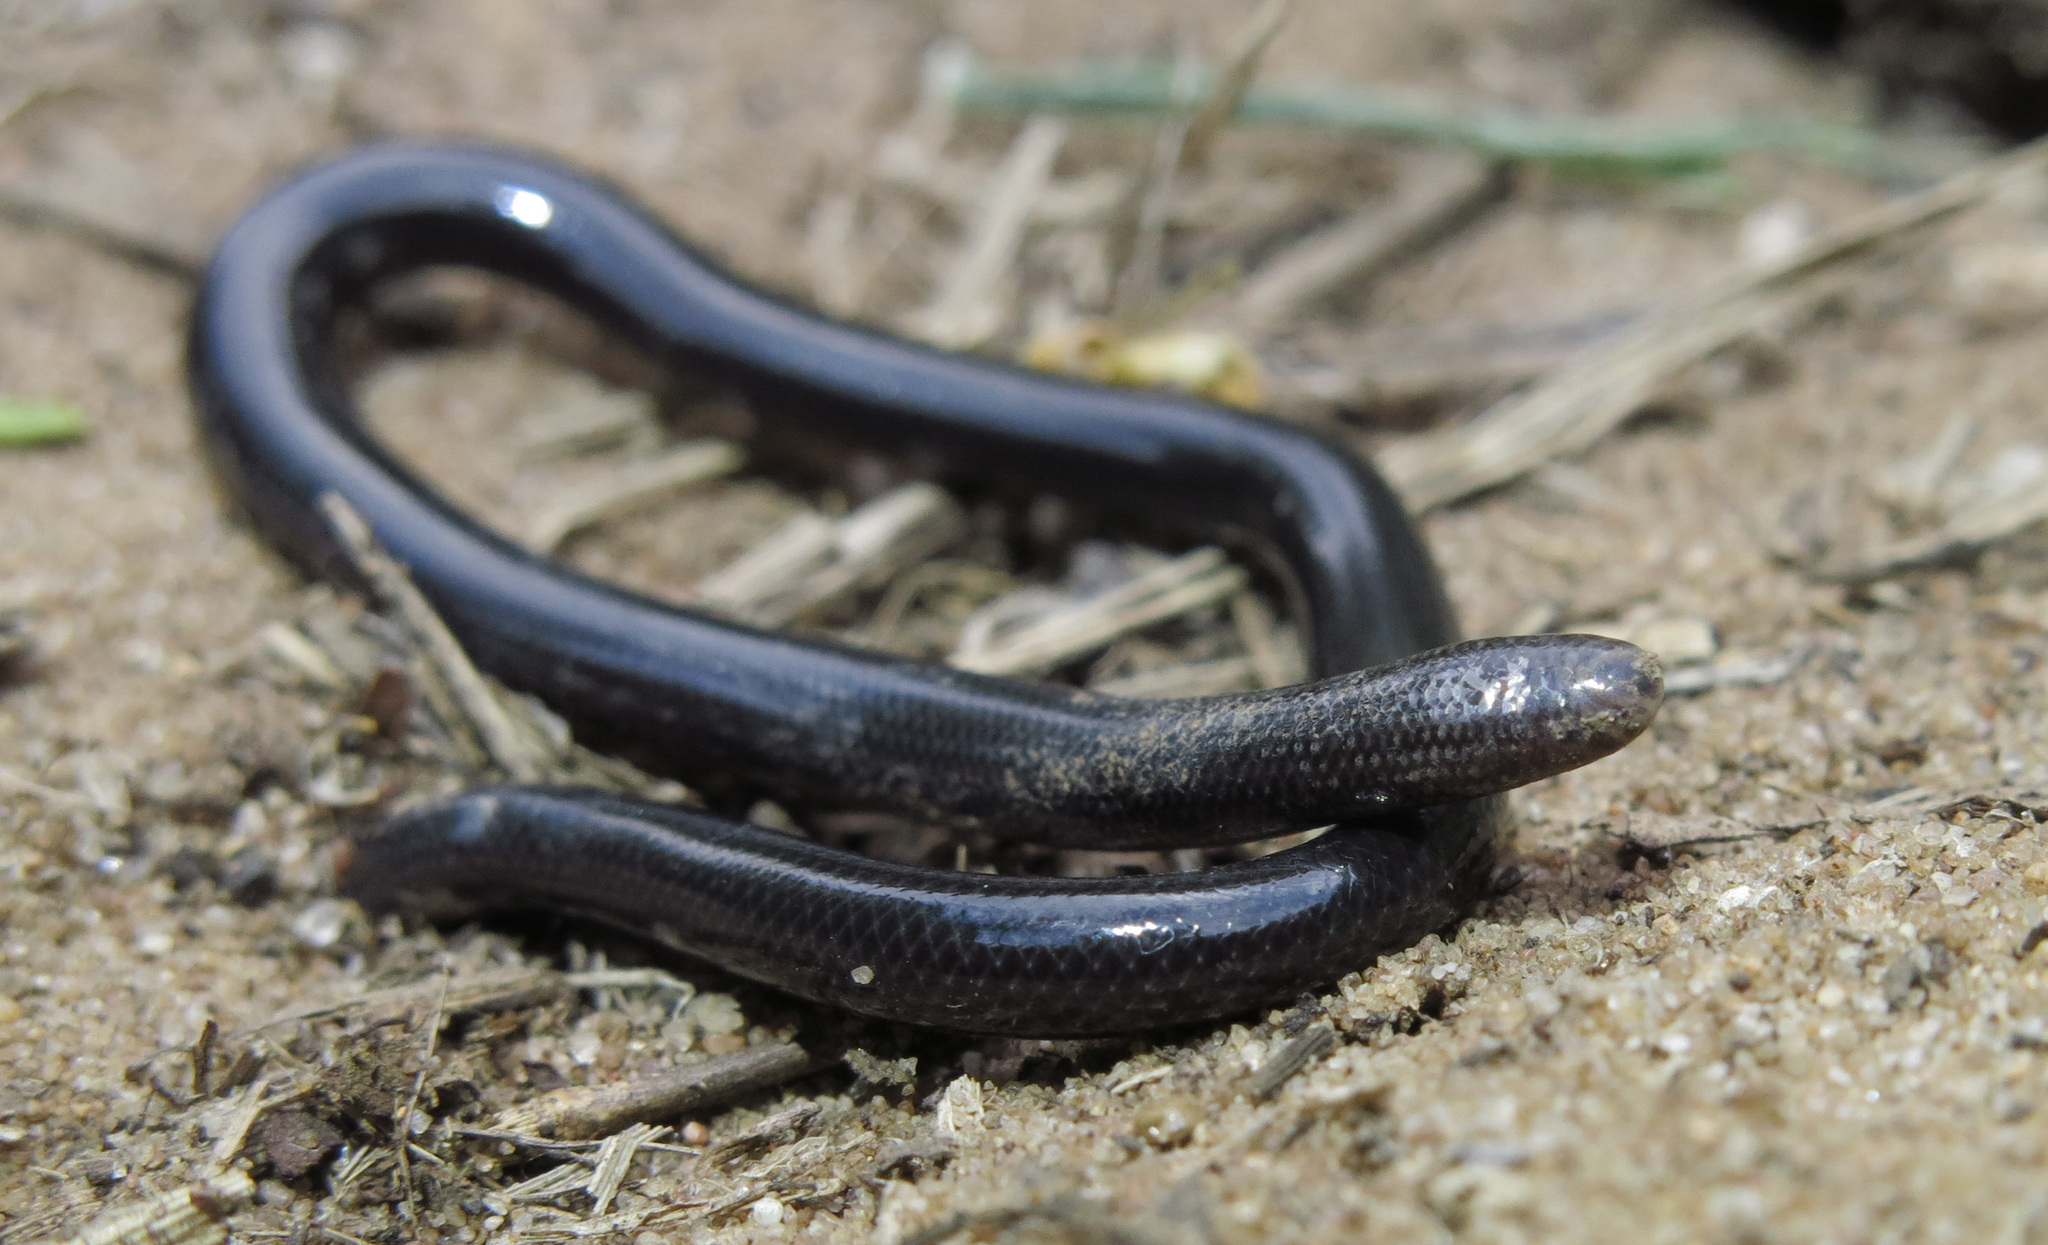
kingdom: Animalia
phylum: Chordata
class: Squamata
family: Typhlopidae
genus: Afrotyphlops
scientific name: Afrotyphlops fornasinii
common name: Fornasini's blind snake
